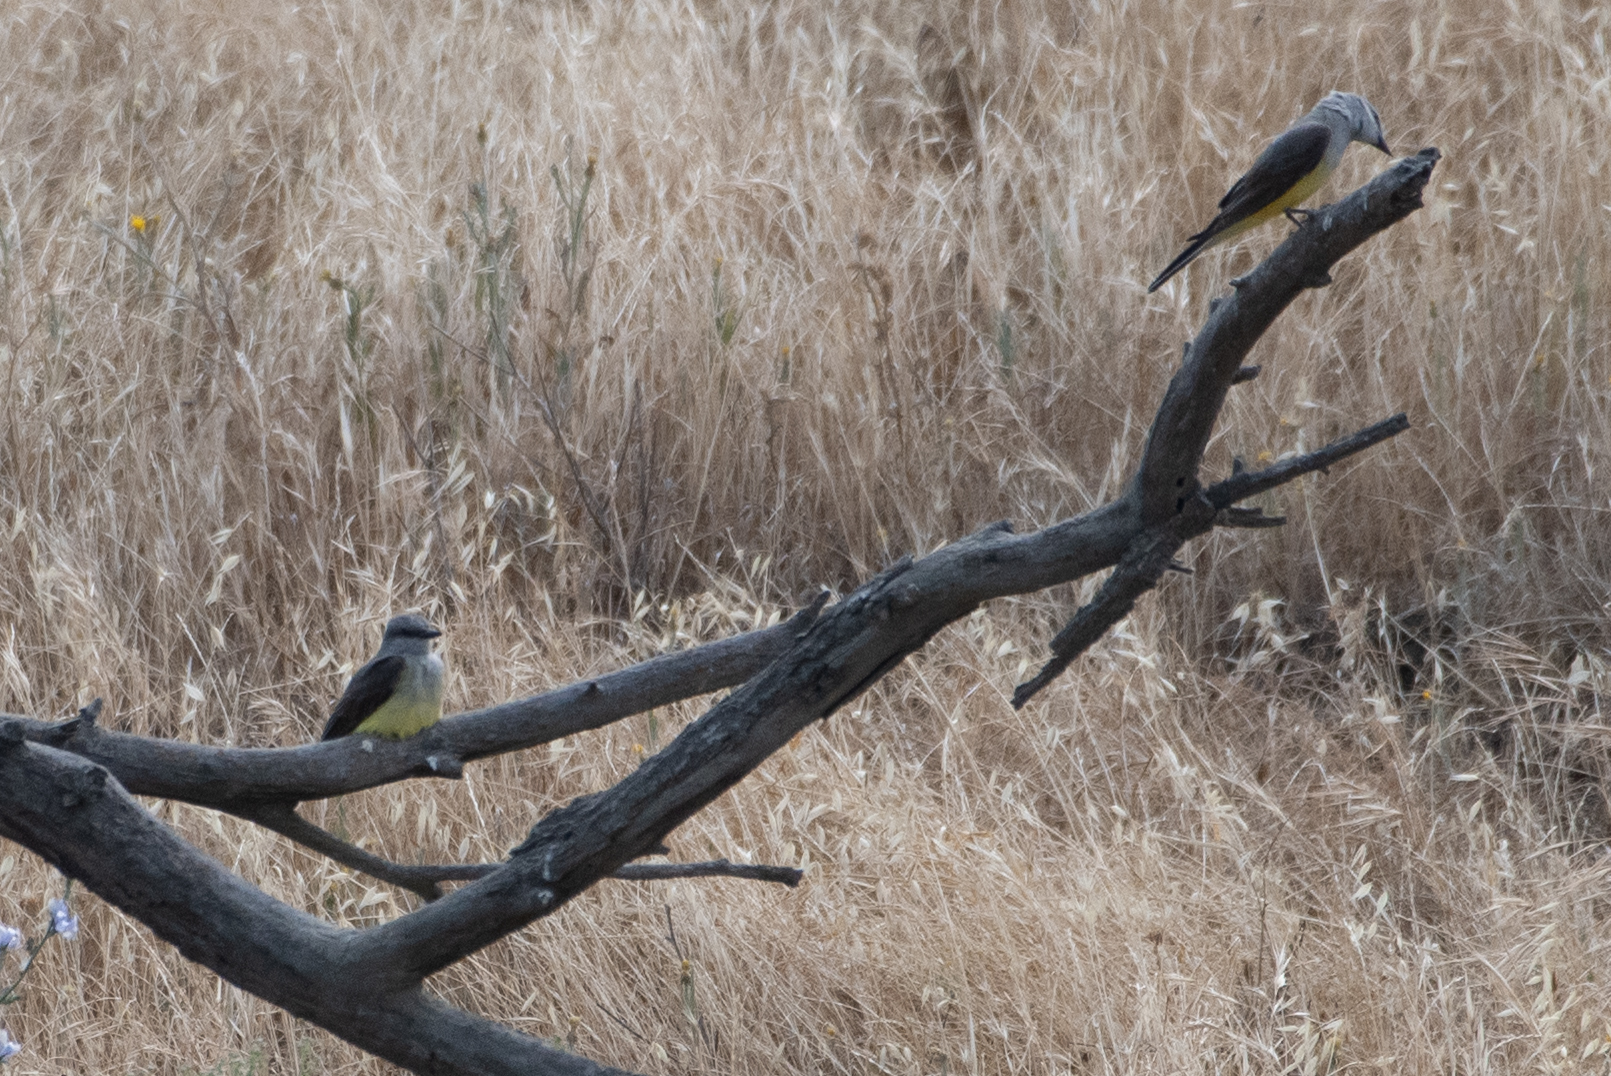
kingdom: Animalia
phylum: Chordata
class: Aves
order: Passeriformes
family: Tyrannidae
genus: Tyrannus
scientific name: Tyrannus verticalis
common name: Western kingbird
